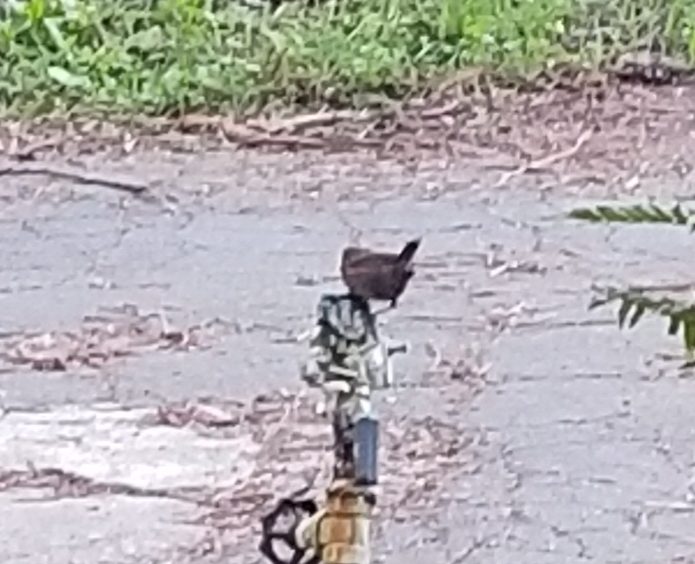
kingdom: Animalia
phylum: Chordata
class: Aves
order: Passeriformes
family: Troglodytidae
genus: Troglodytes
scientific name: Troglodytes pacificus
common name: Pacific wren
